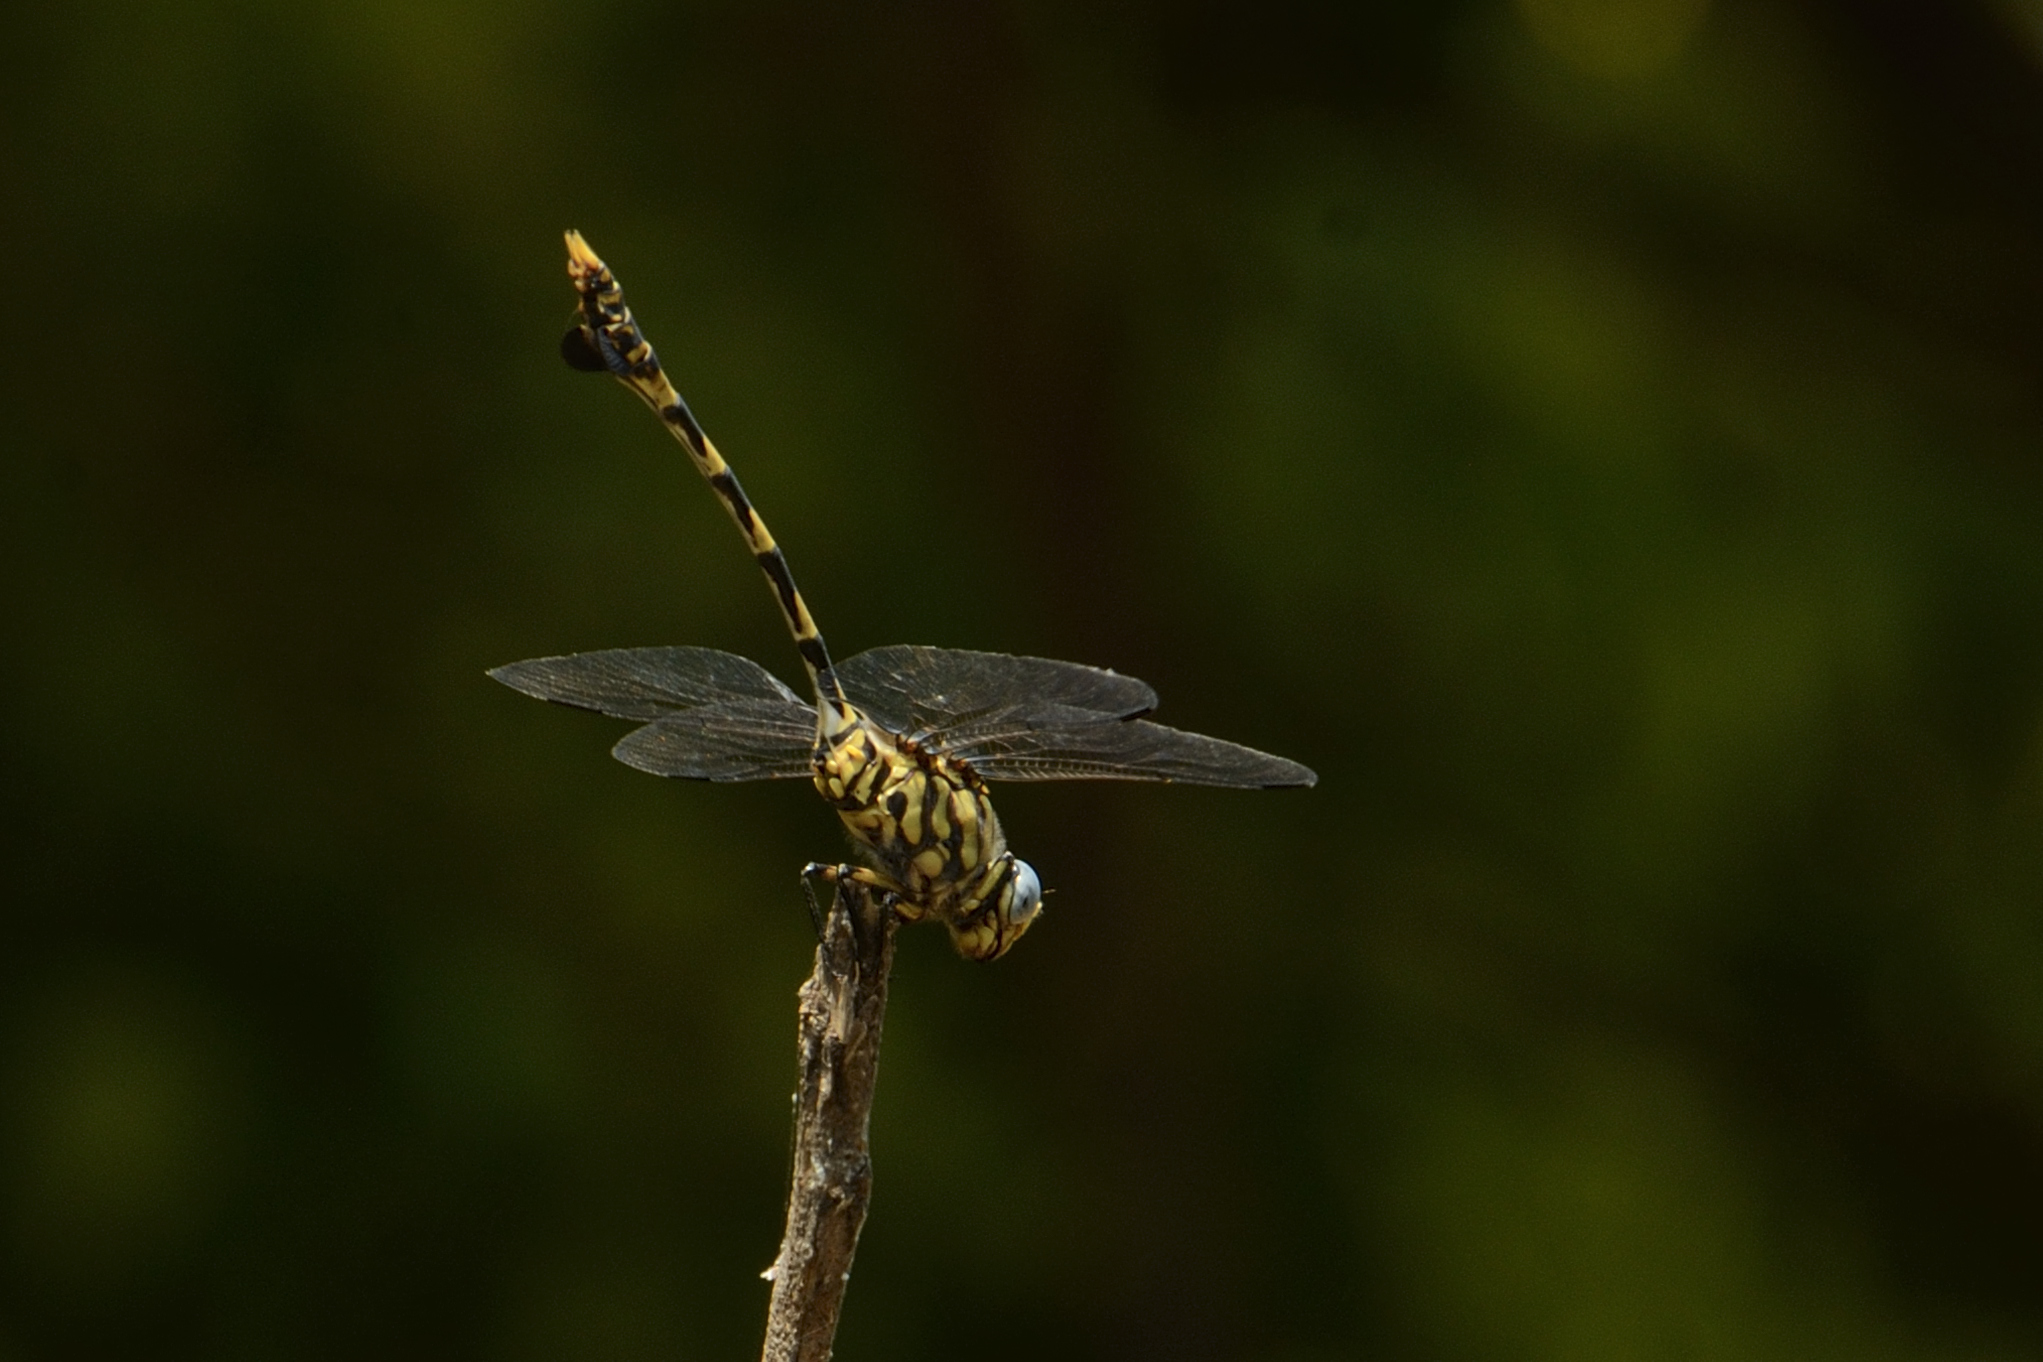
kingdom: Animalia
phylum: Arthropoda
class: Insecta
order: Odonata
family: Gomphidae
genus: Ictinogomphus
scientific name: Ictinogomphus ferox
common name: Common tiger
